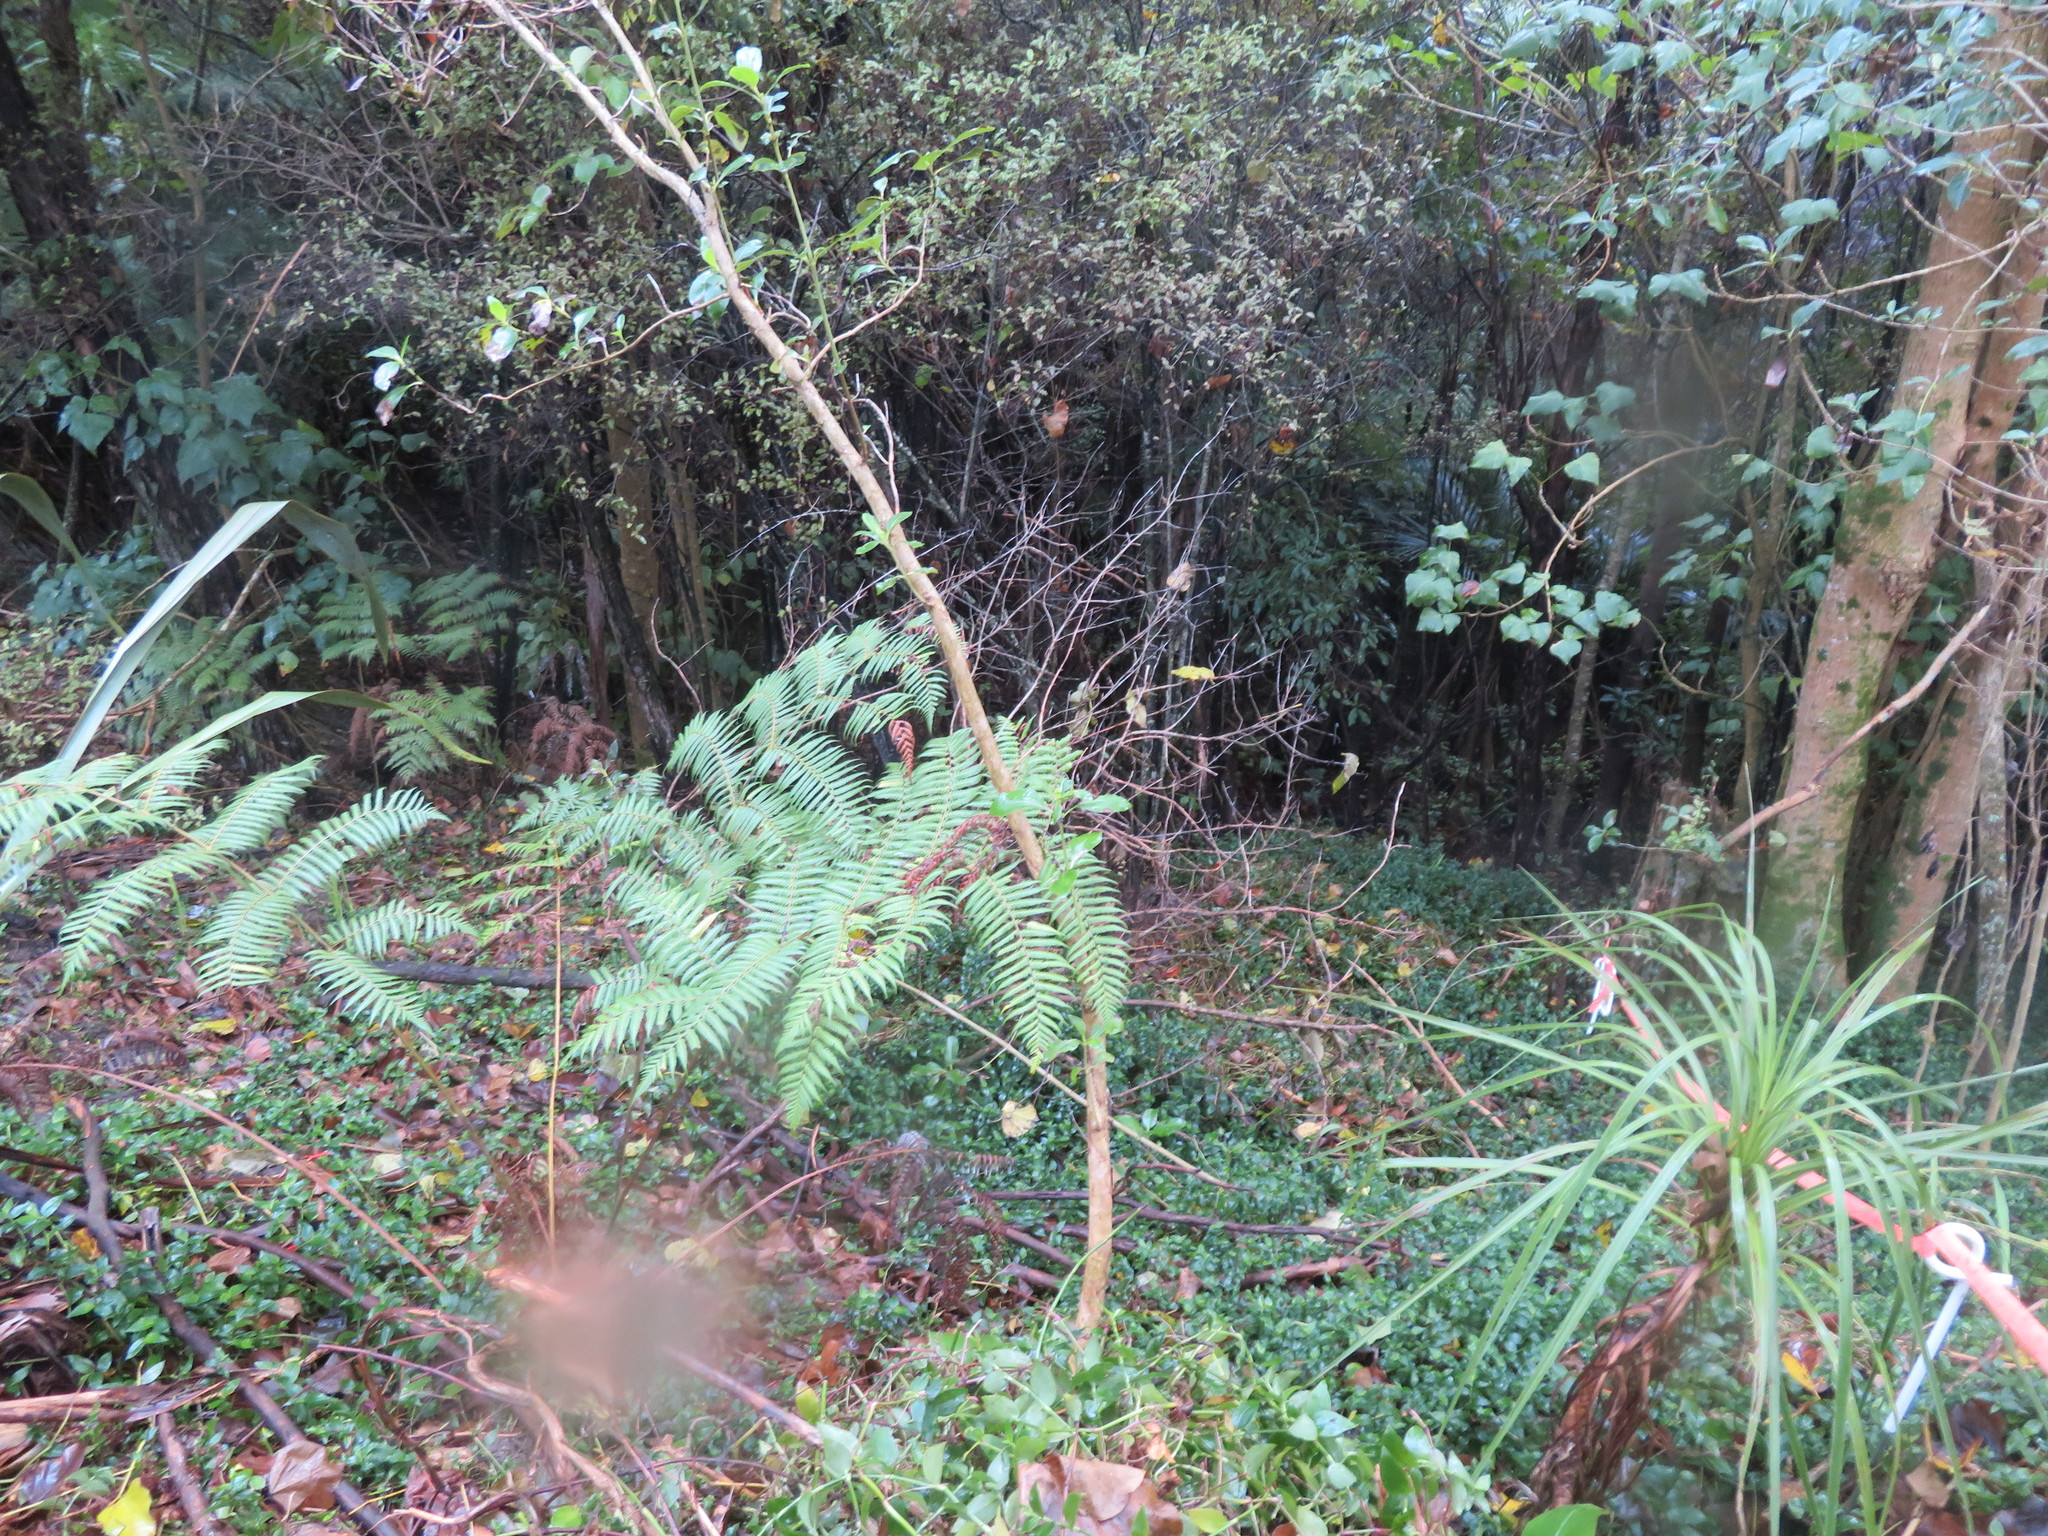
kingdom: Plantae
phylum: Tracheophyta
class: Liliopsida
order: Commelinales
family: Commelinaceae
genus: Tradescantia
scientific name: Tradescantia fluminensis
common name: Wandering-jew
